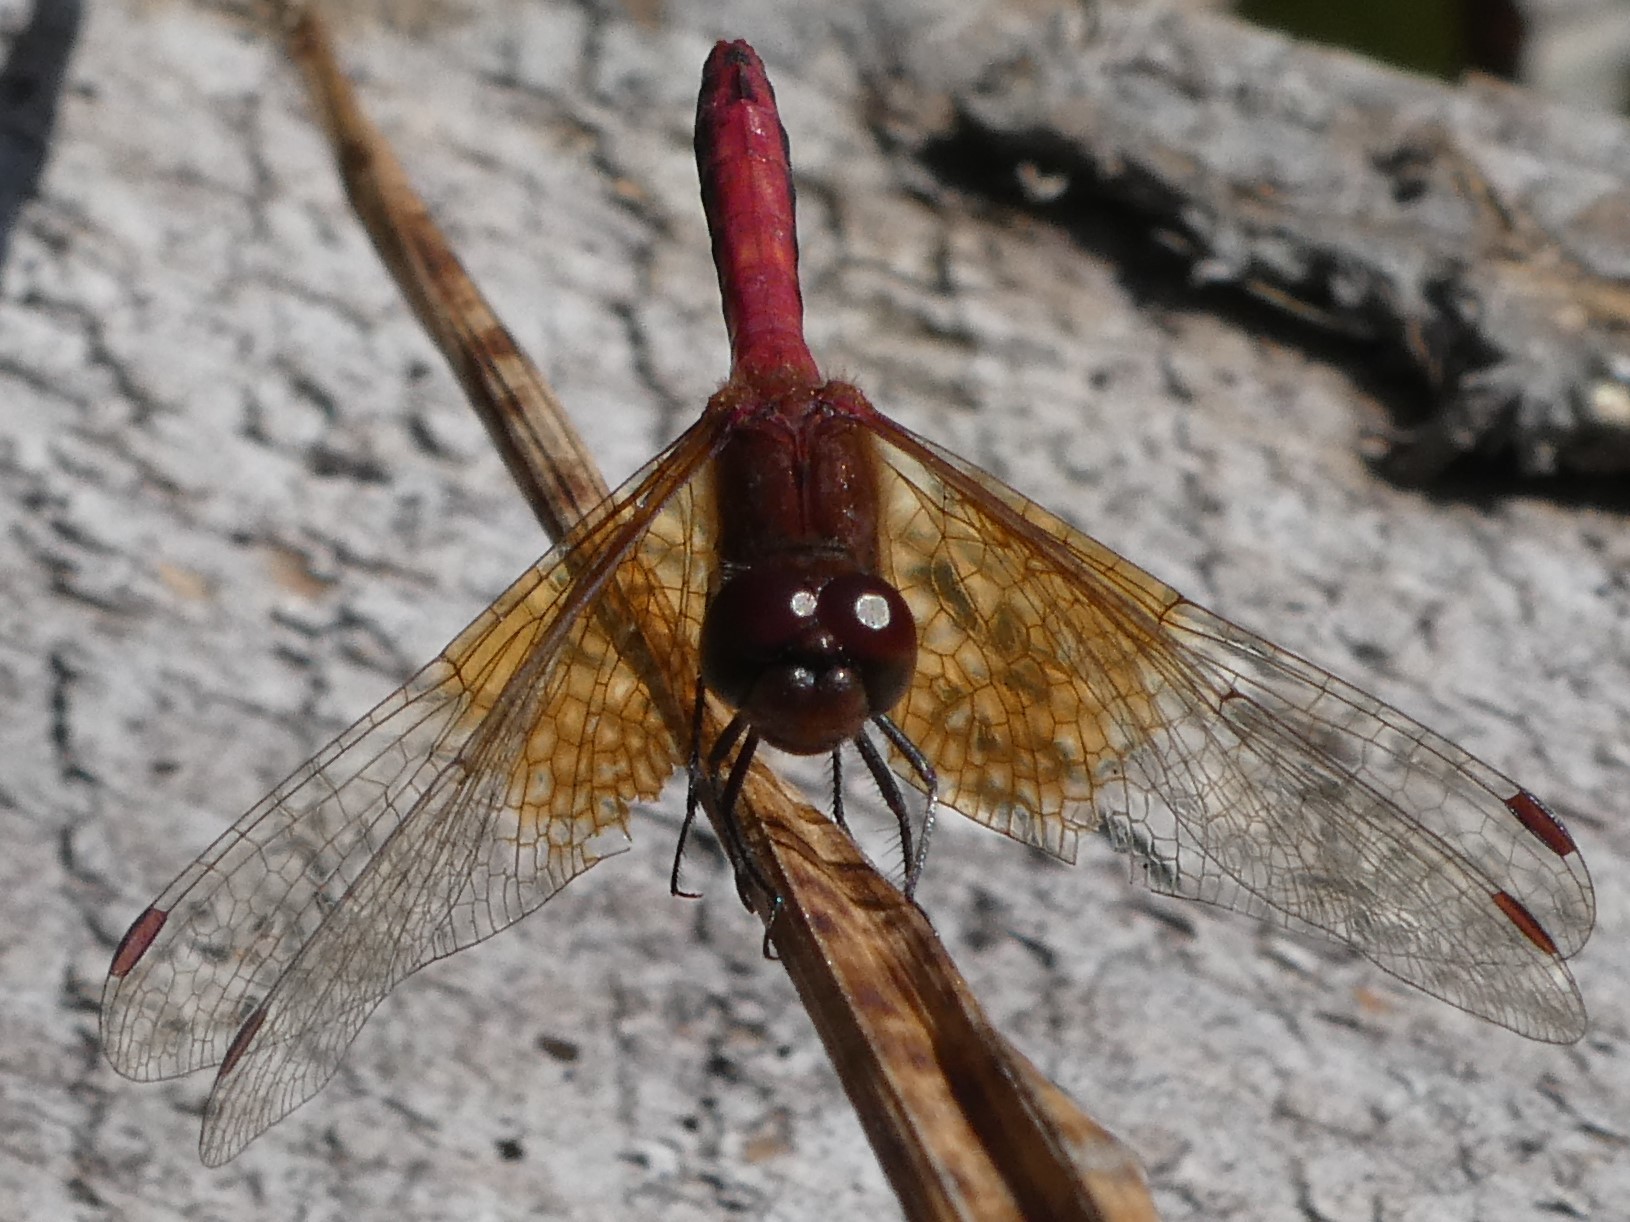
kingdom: Animalia
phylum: Arthropoda
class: Insecta
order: Odonata
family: Libellulidae
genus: Sympetrum
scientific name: Sympetrum semicinctum
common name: Band-winged meadowhawk
